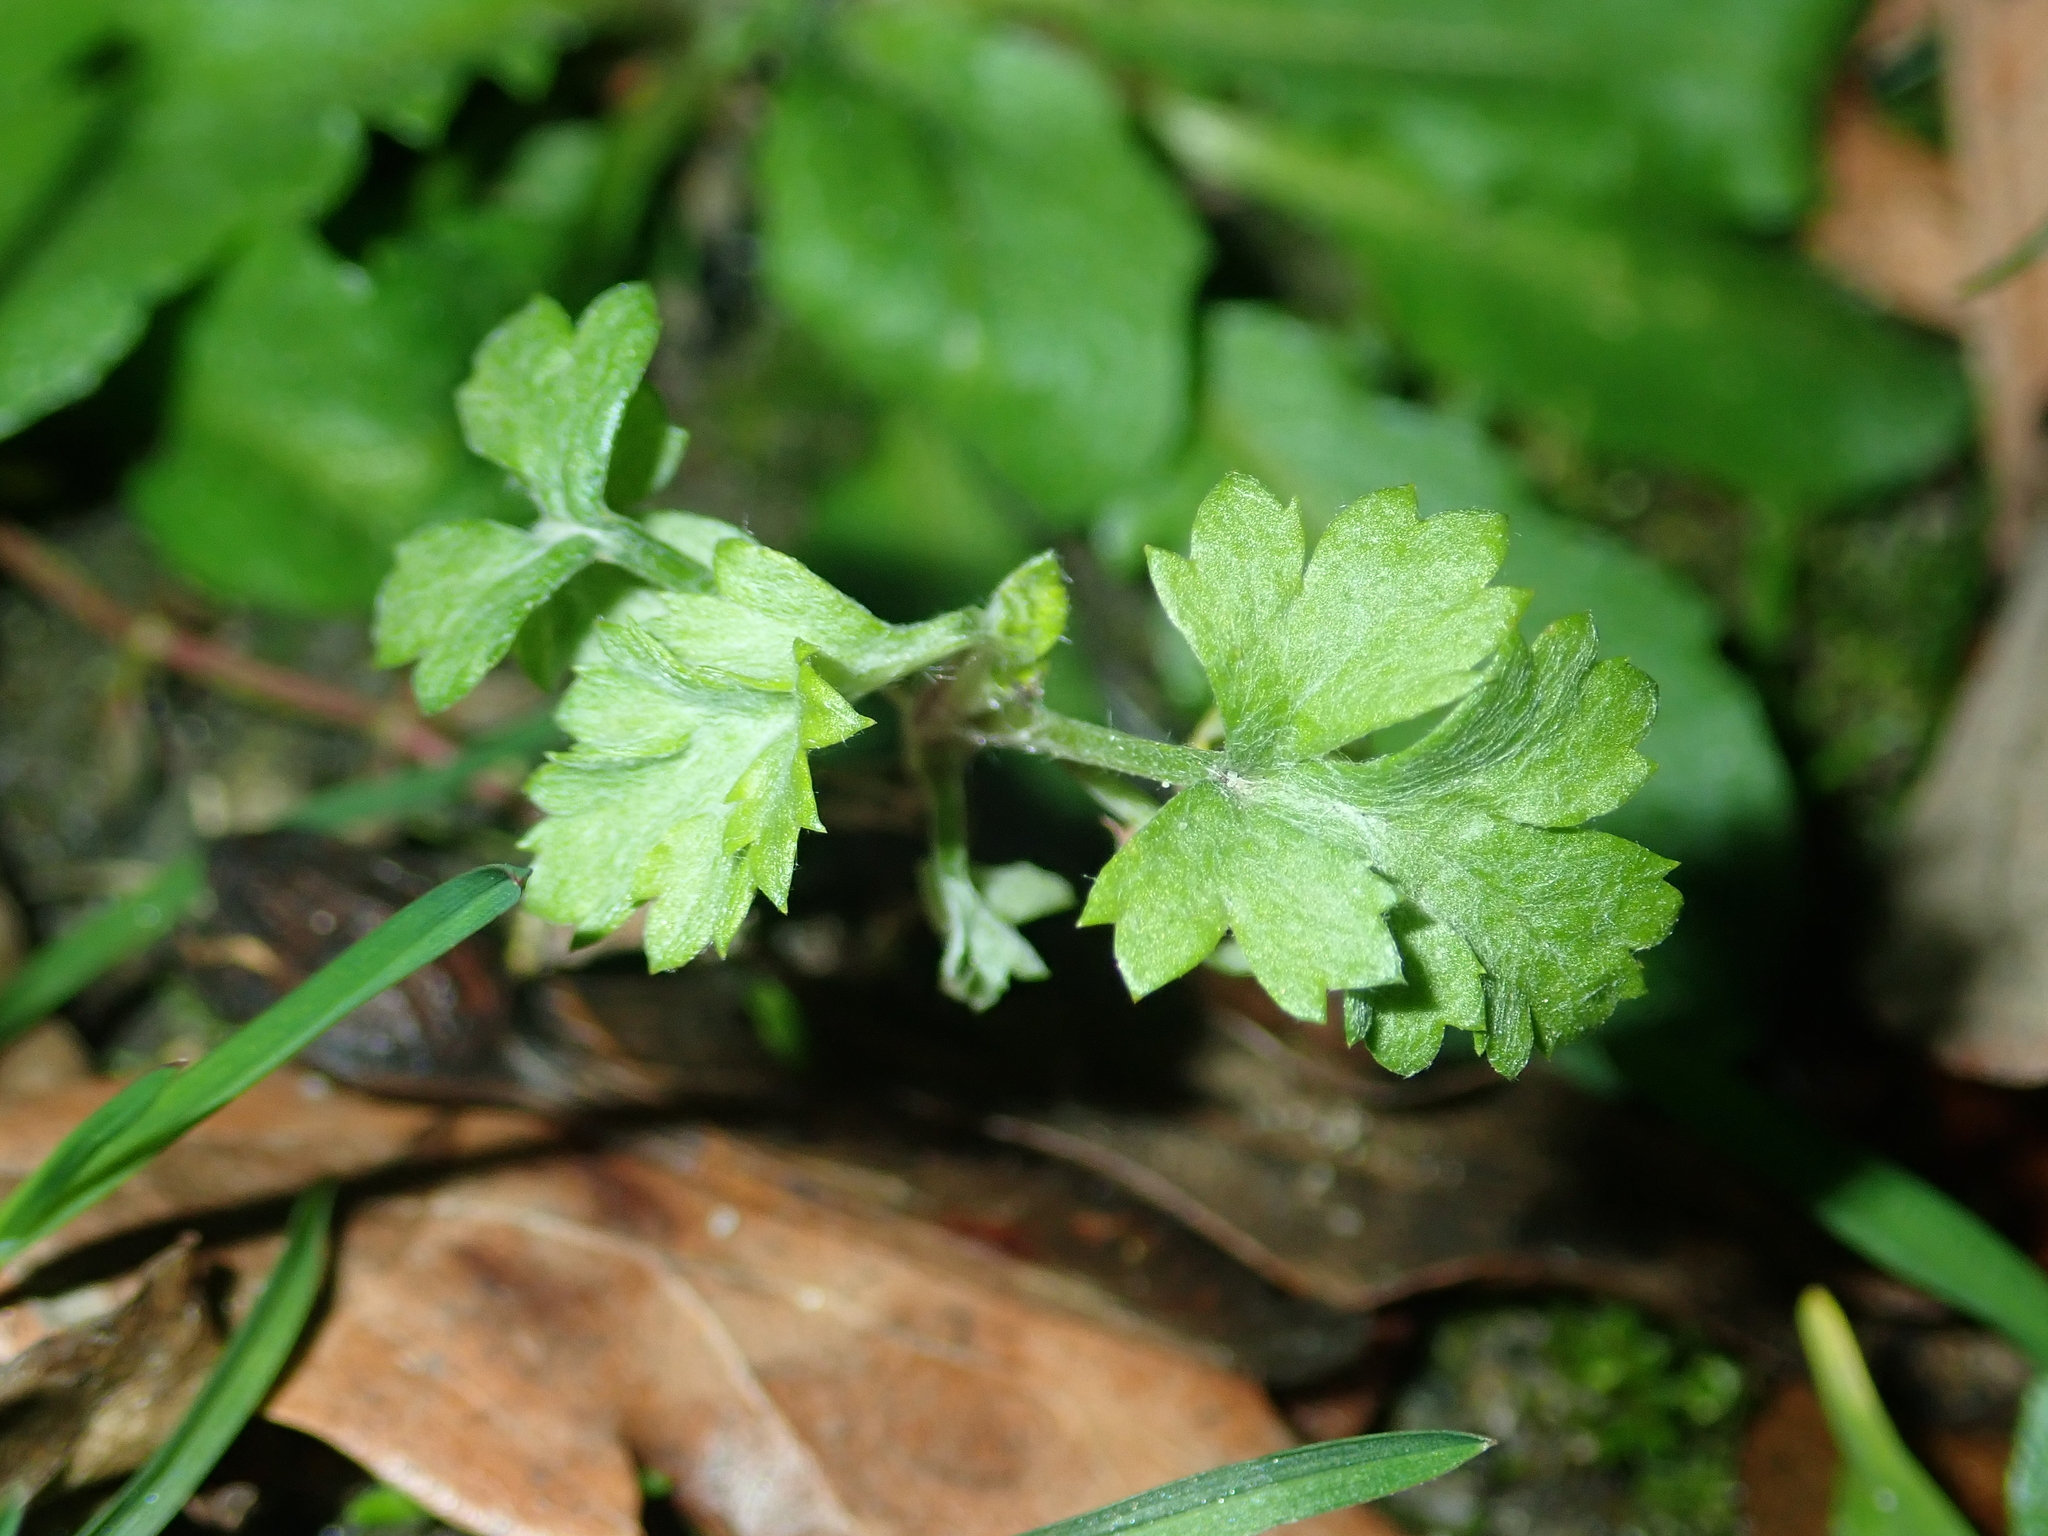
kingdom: Plantae
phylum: Tracheophyta
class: Magnoliopsida
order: Asterales
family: Asteraceae
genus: Artemisia
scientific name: Artemisia vulgaris
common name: Mugwort
